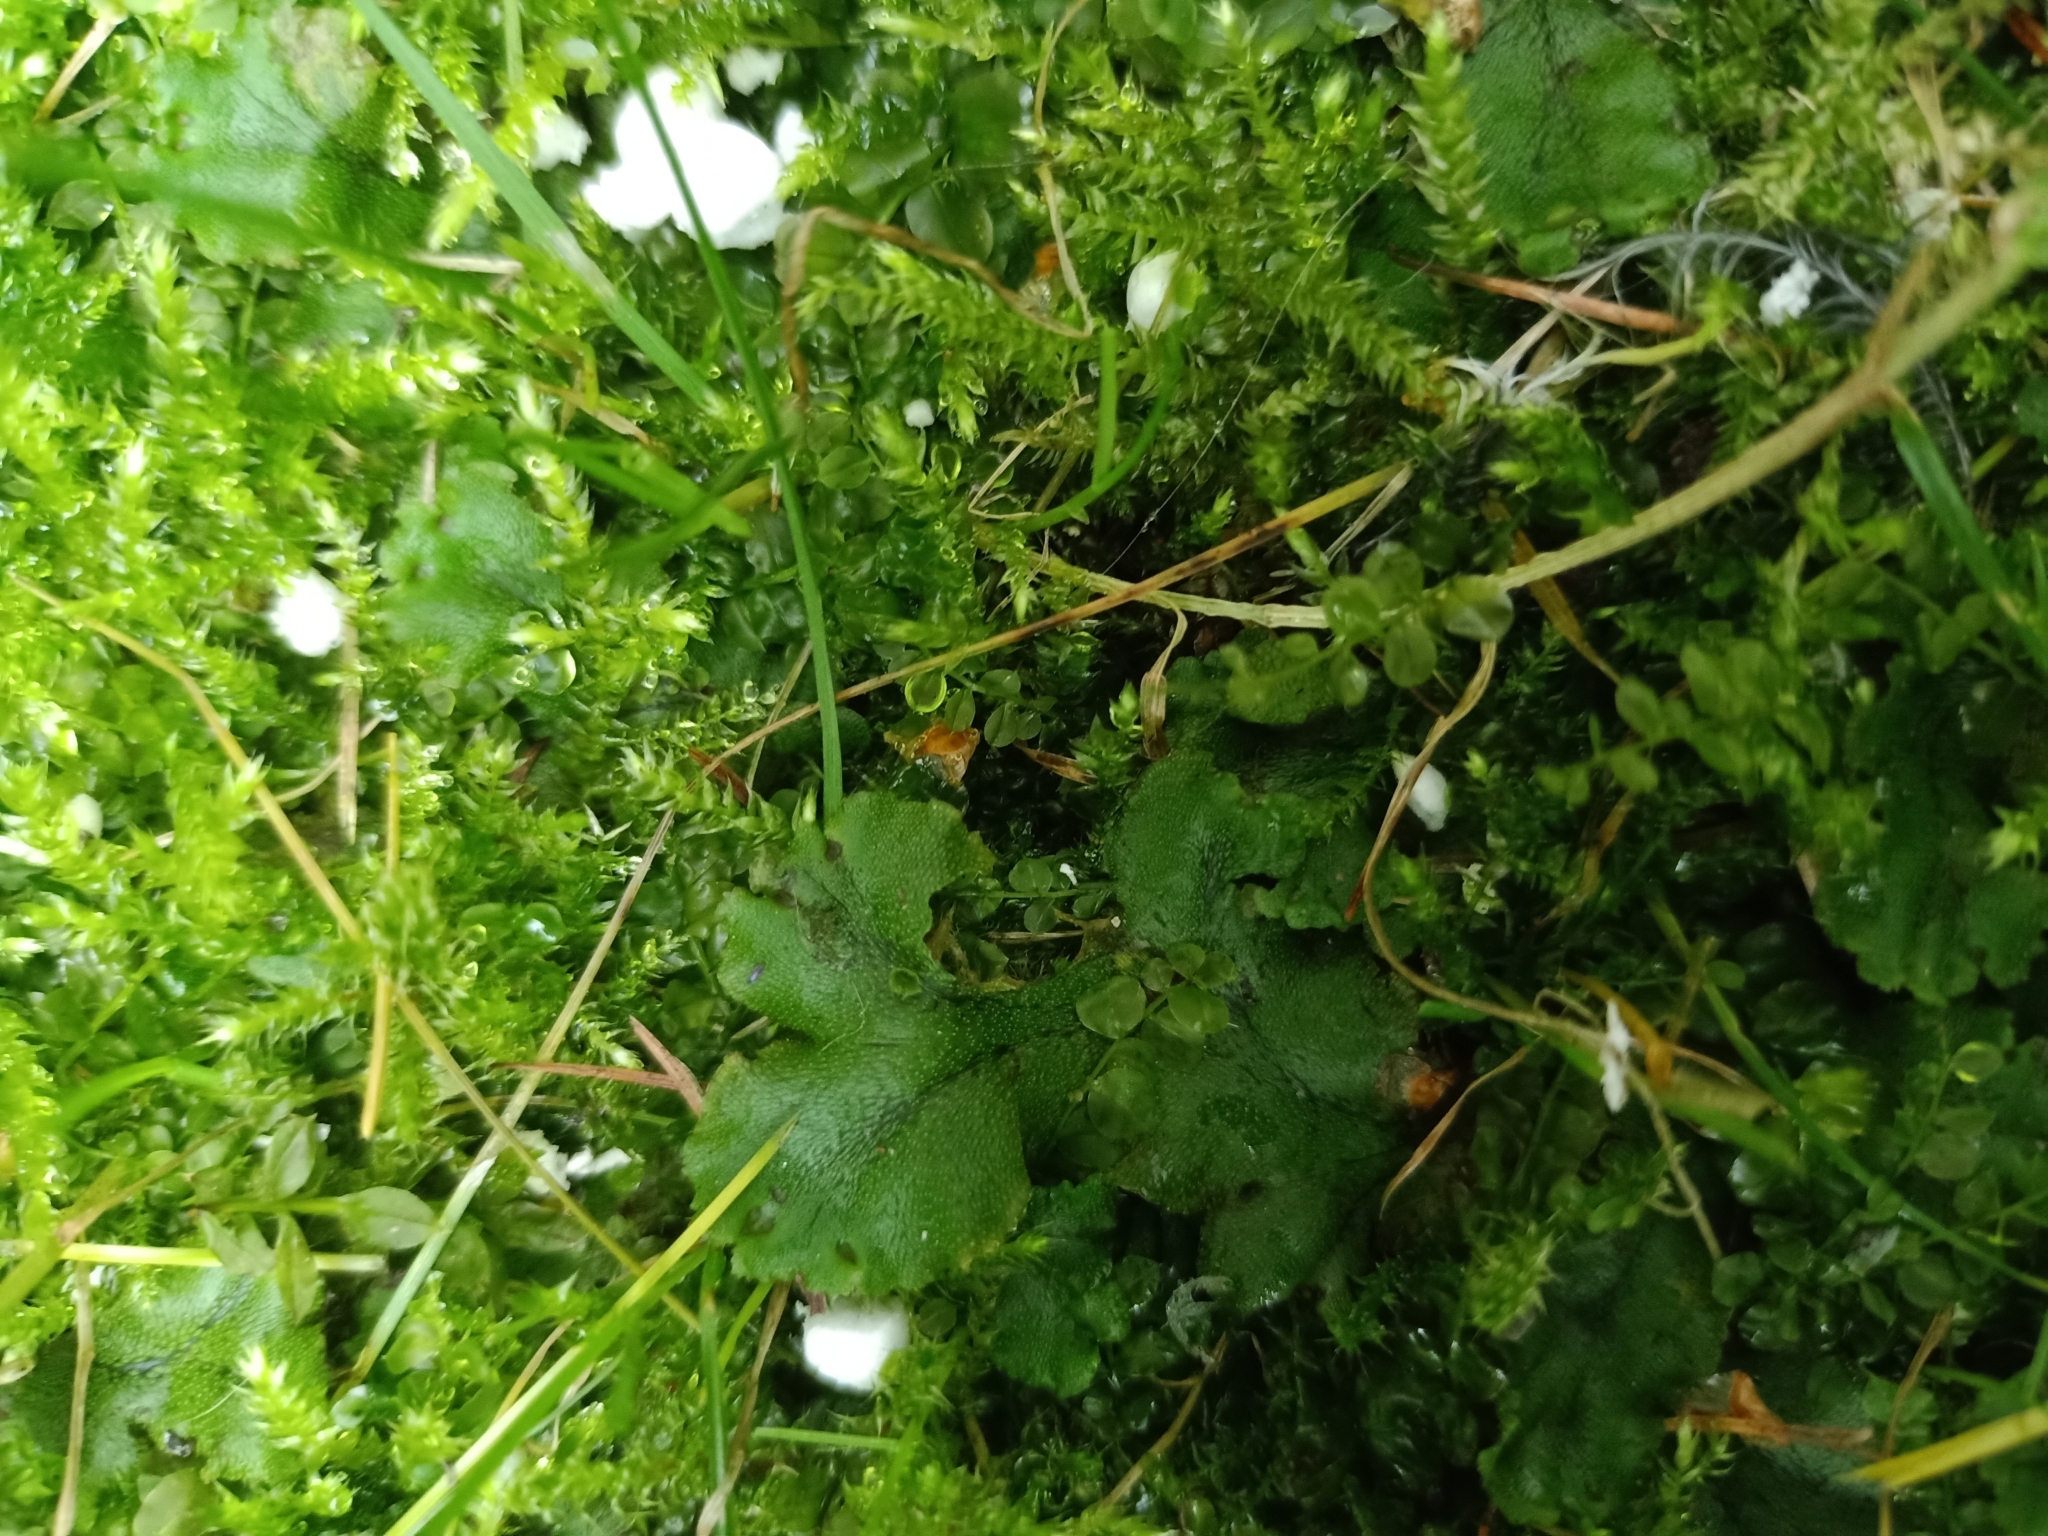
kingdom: Plantae
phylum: Marchantiophyta
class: Marchantiopsida
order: Marchantiales
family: Marchantiaceae
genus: Marchantia
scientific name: Marchantia polymorpha
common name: Common liverwort
